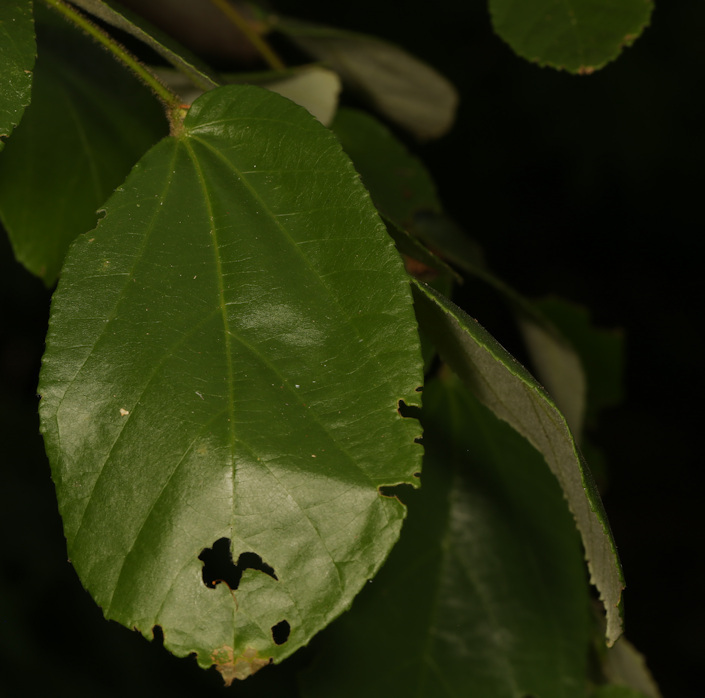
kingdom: Plantae
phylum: Tracheophyta
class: Magnoliopsida
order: Malvales
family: Malvaceae
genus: Grewia
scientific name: Grewia hexamita
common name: Giant raisin
